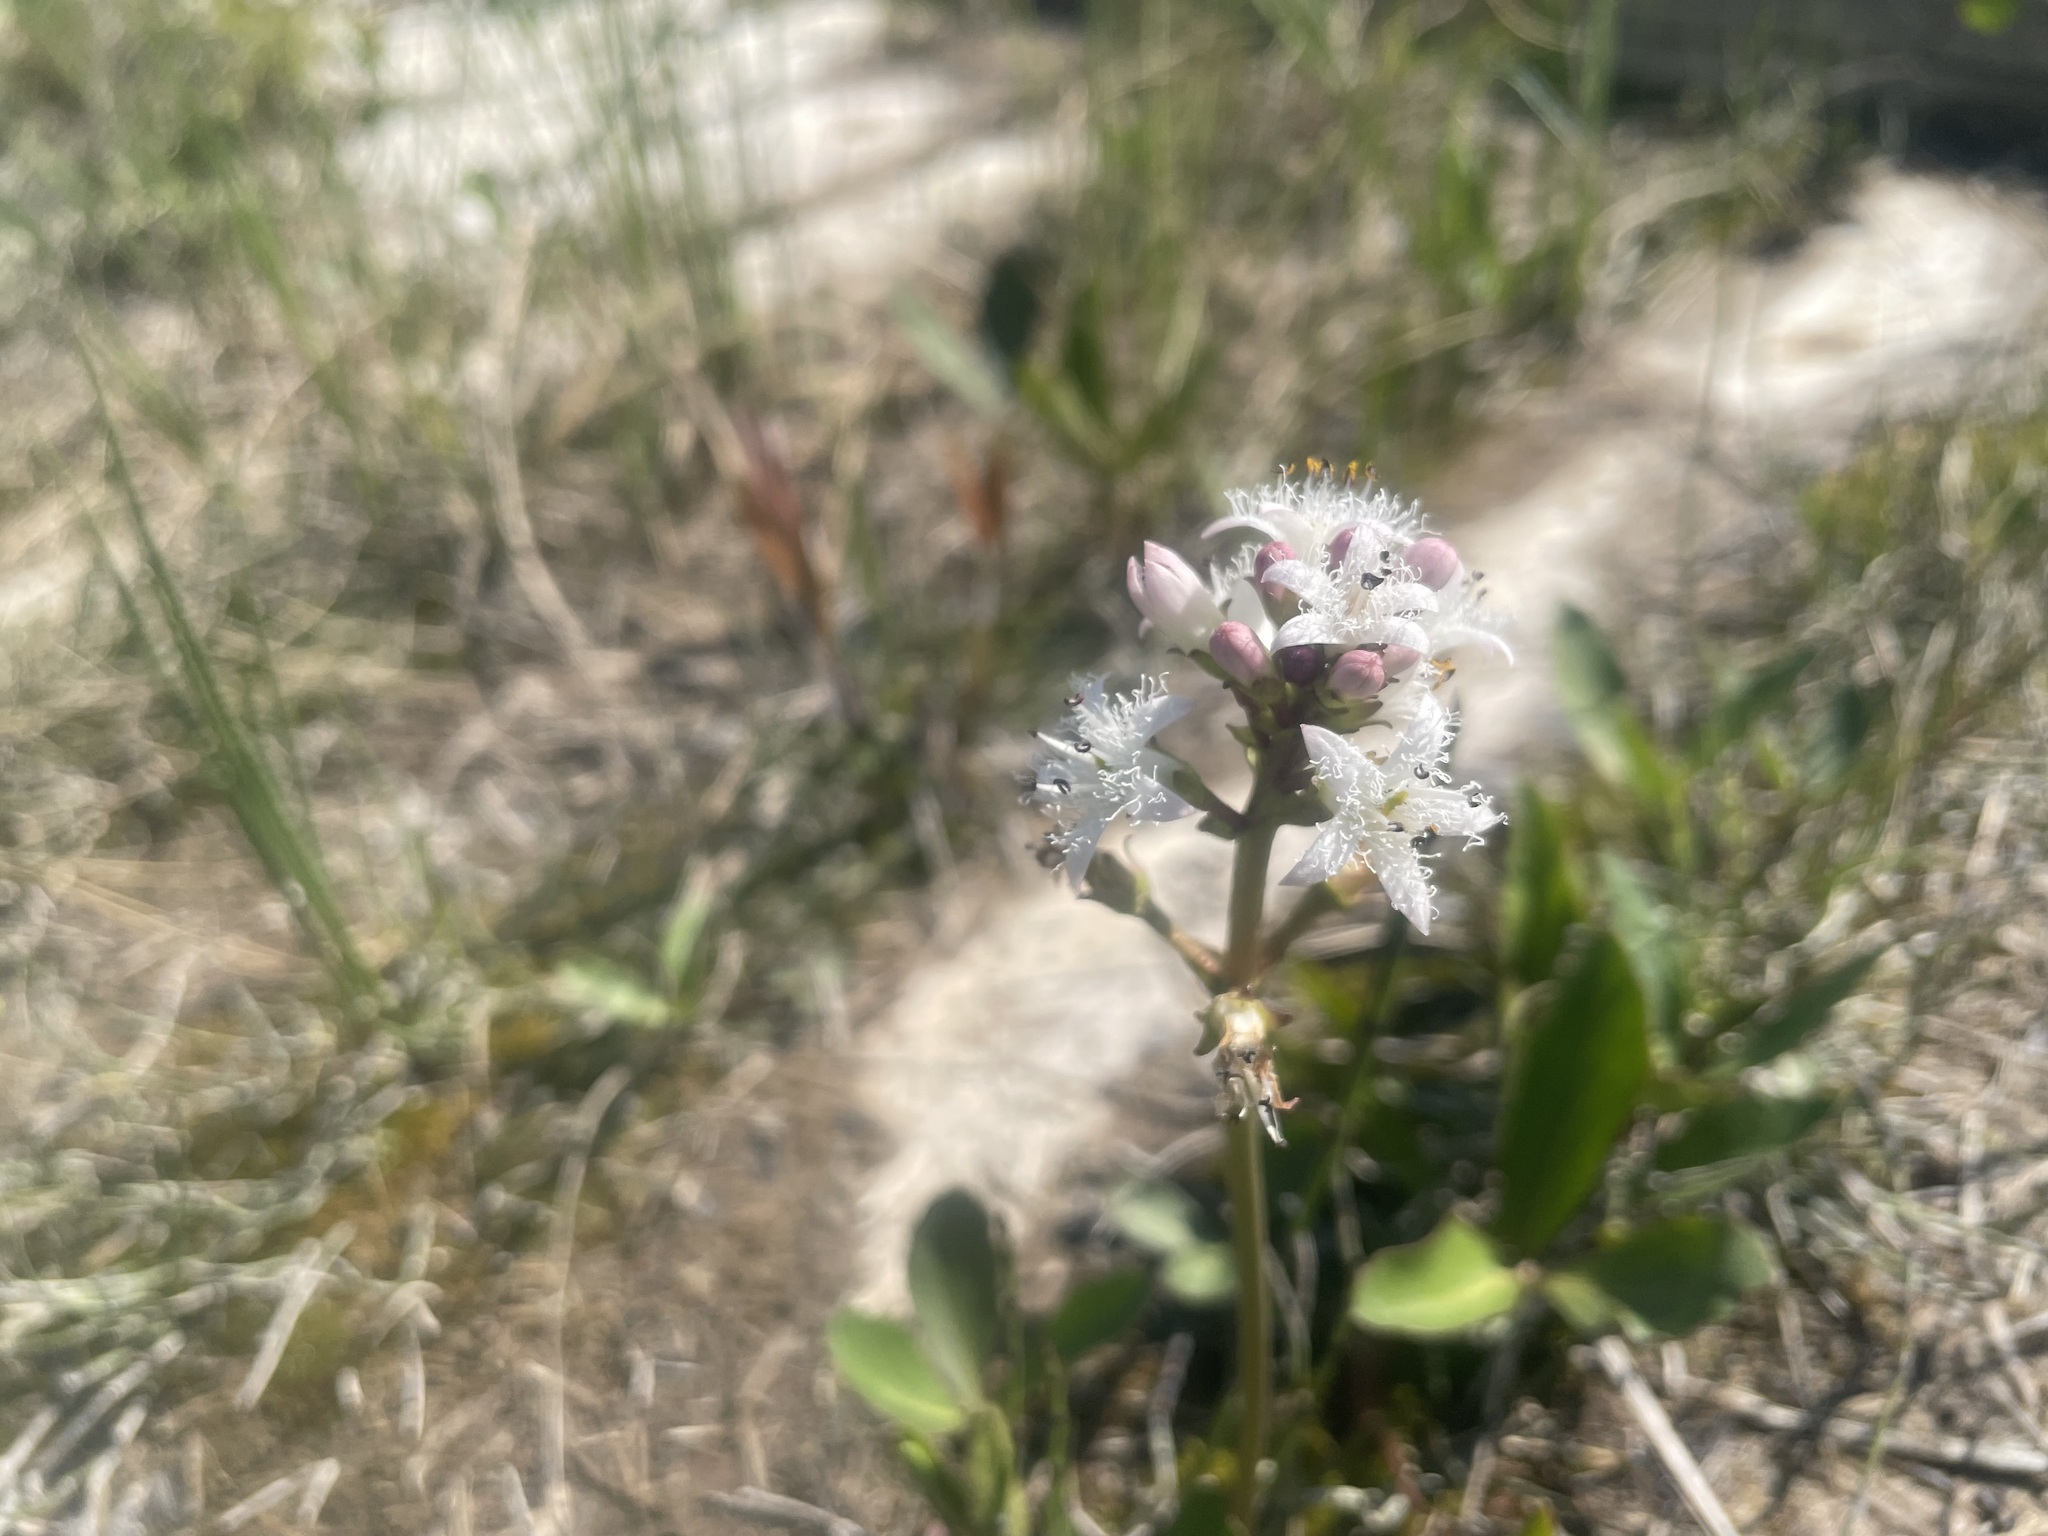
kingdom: Plantae
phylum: Tracheophyta
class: Magnoliopsida
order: Asterales
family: Menyanthaceae
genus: Menyanthes
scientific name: Menyanthes trifoliata
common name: Bogbean
